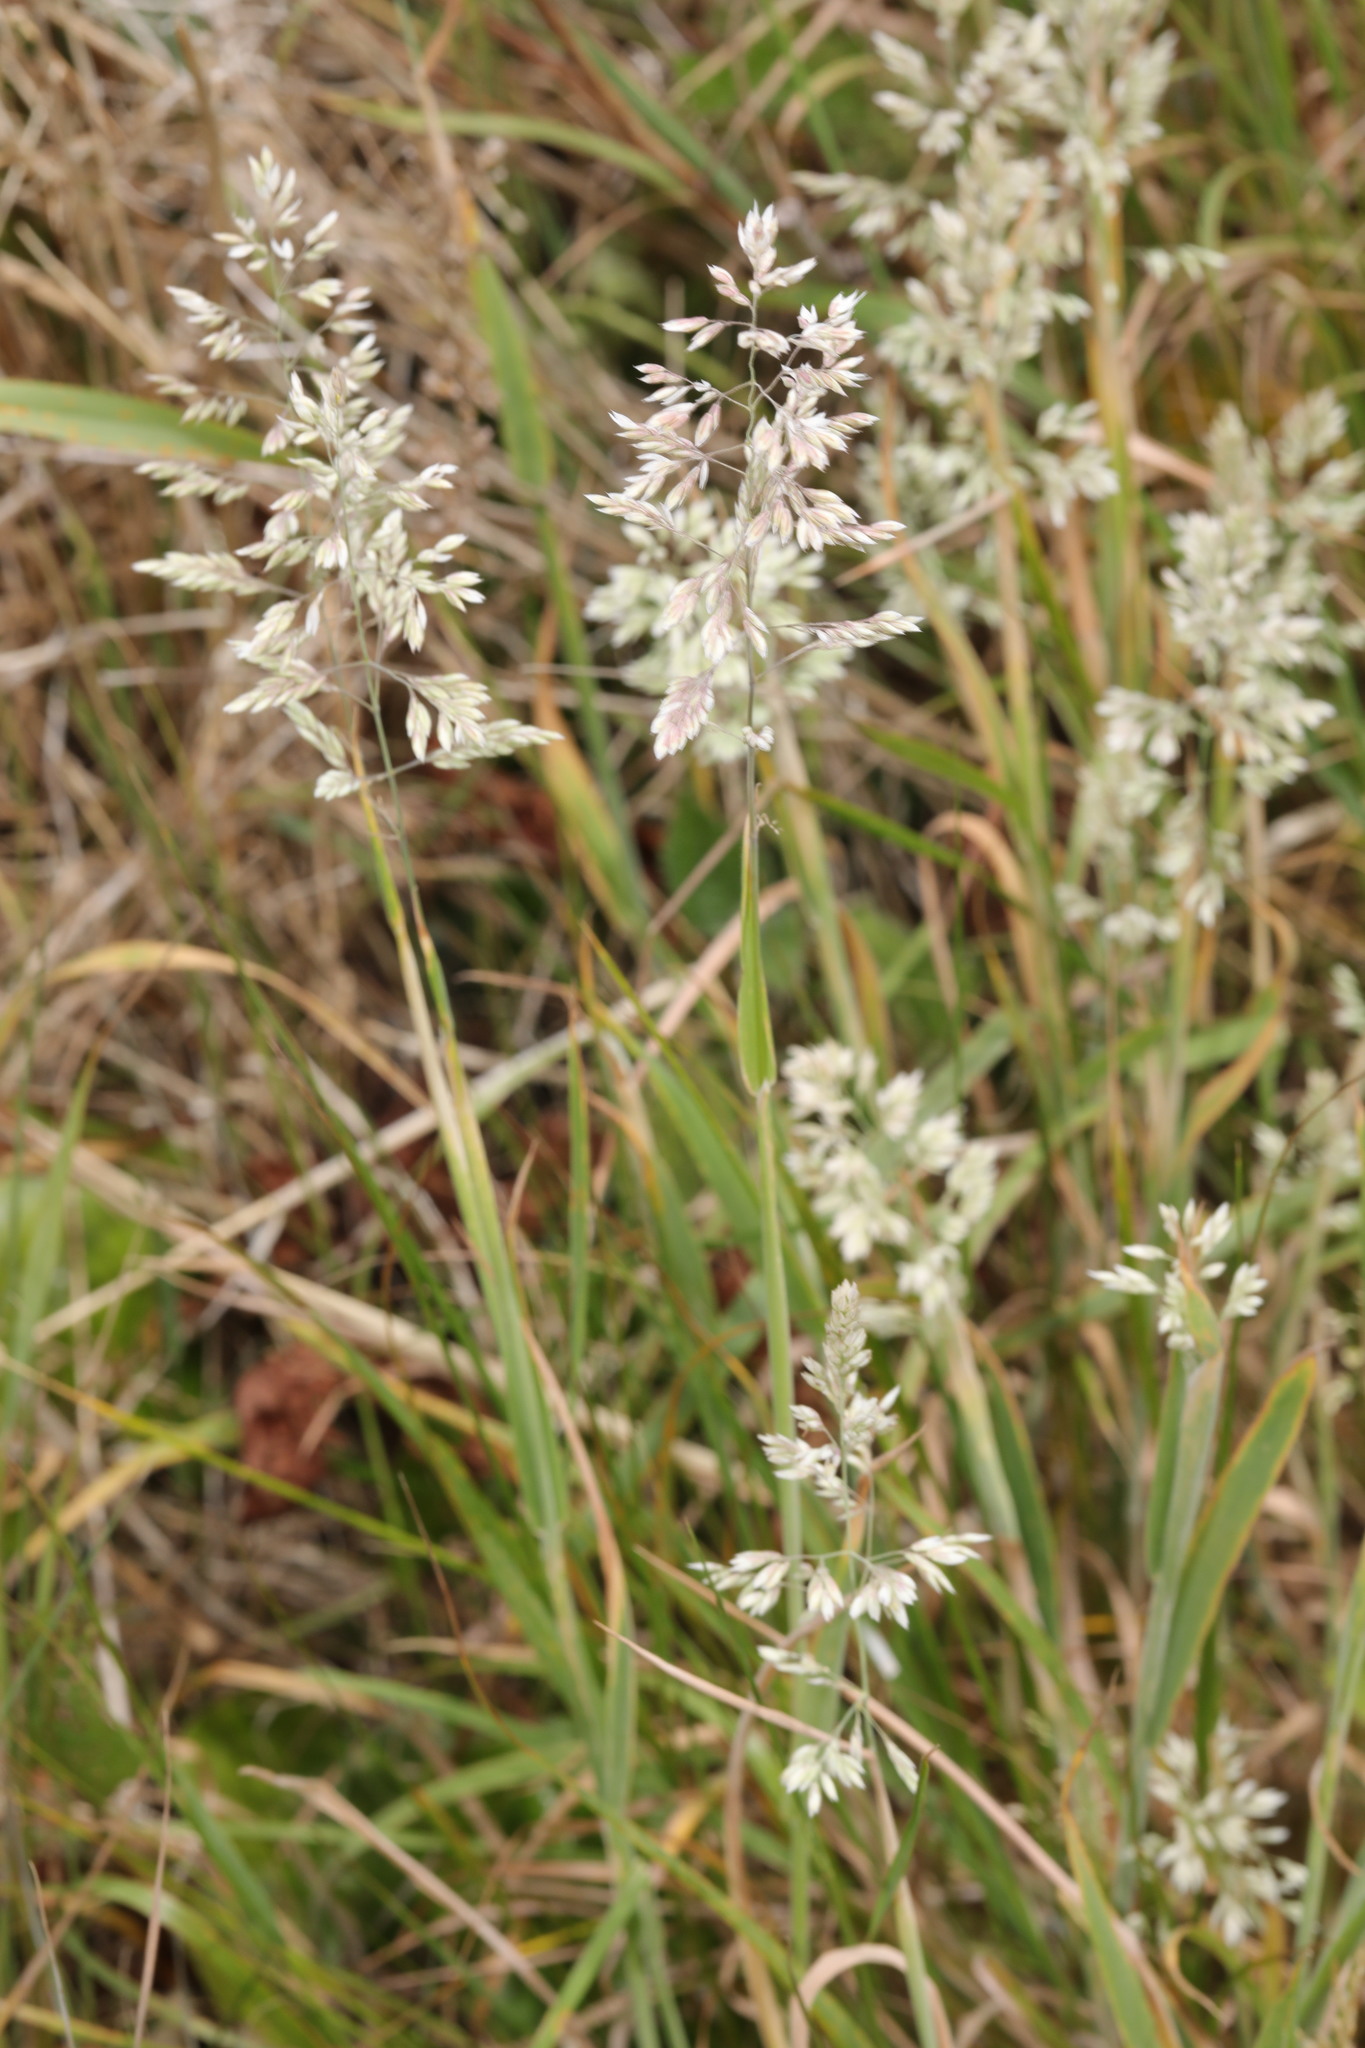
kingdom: Plantae
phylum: Tracheophyta
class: Liliopsida
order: Poales
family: Poaceae
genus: Holcus
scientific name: Holcus lanatus
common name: Yorkshire-fog
